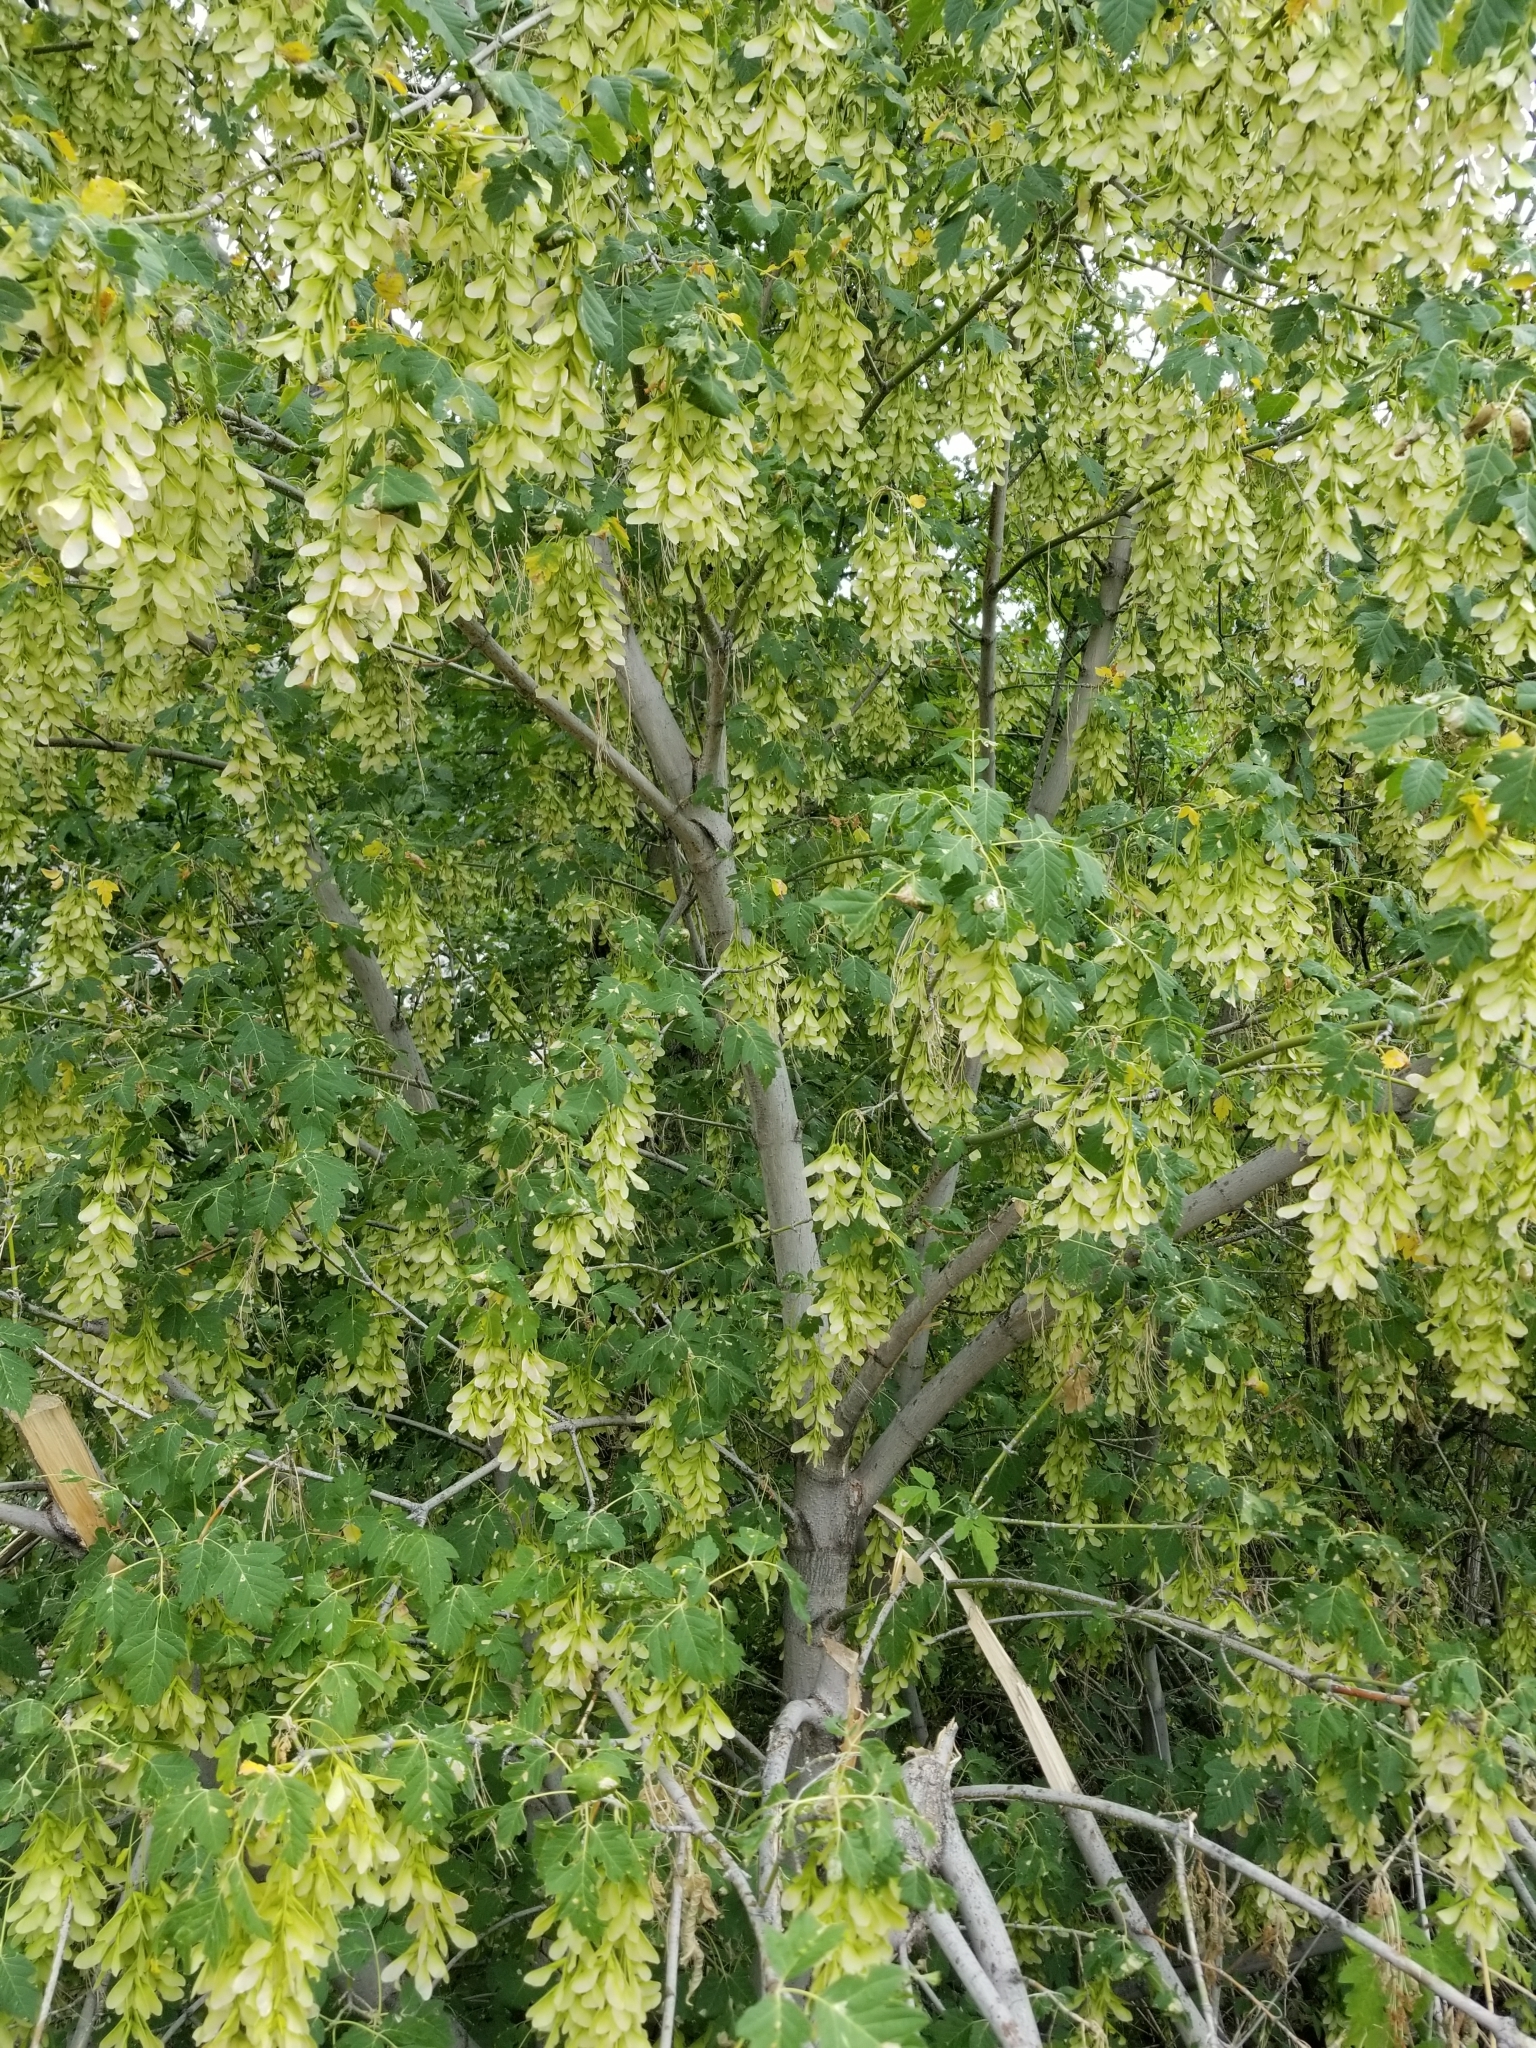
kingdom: Plantae
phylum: Tracheophyta
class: Magnoliopsida
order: Sapindales
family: Sapindaceae
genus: Acer
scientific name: Acer negundo
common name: Ashleaf maple
